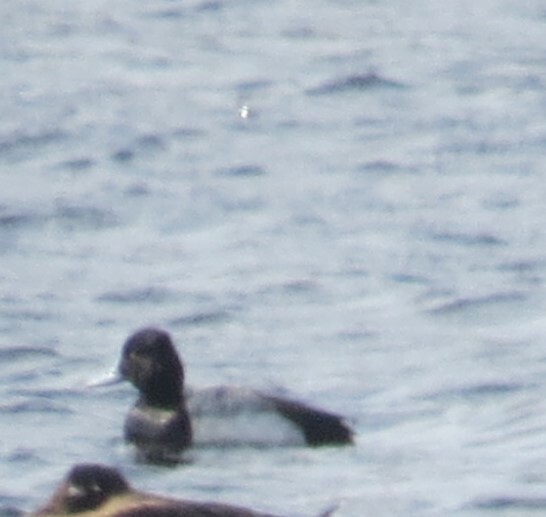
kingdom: Animalia
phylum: Chordata
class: Aves
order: Anseriformes
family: Anatidae
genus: Aythya
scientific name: Aythya affinis
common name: Lesser scaup
